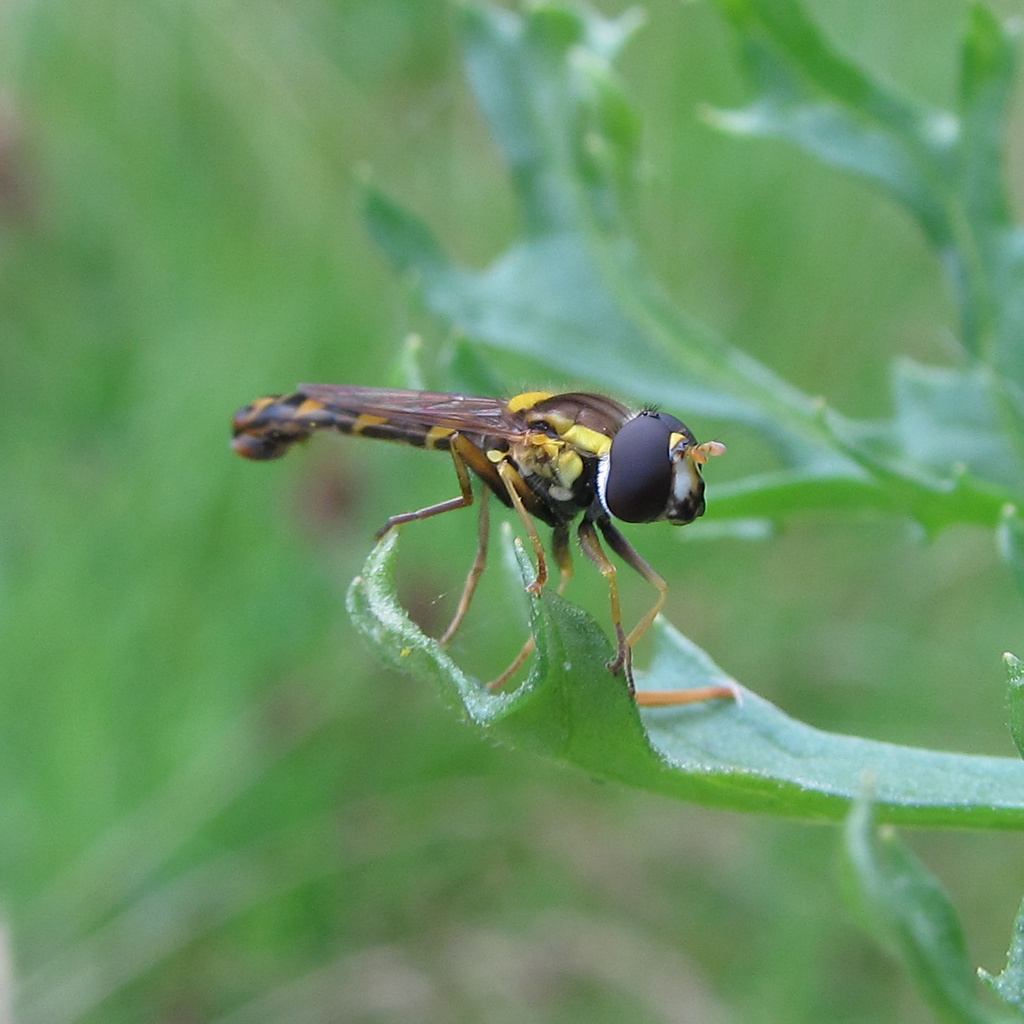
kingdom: Animalia
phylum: Arthropoda
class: Insecta
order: Diptera
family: Syrphidae
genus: Sphaerophoria
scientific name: Sphaerophoria scripta
